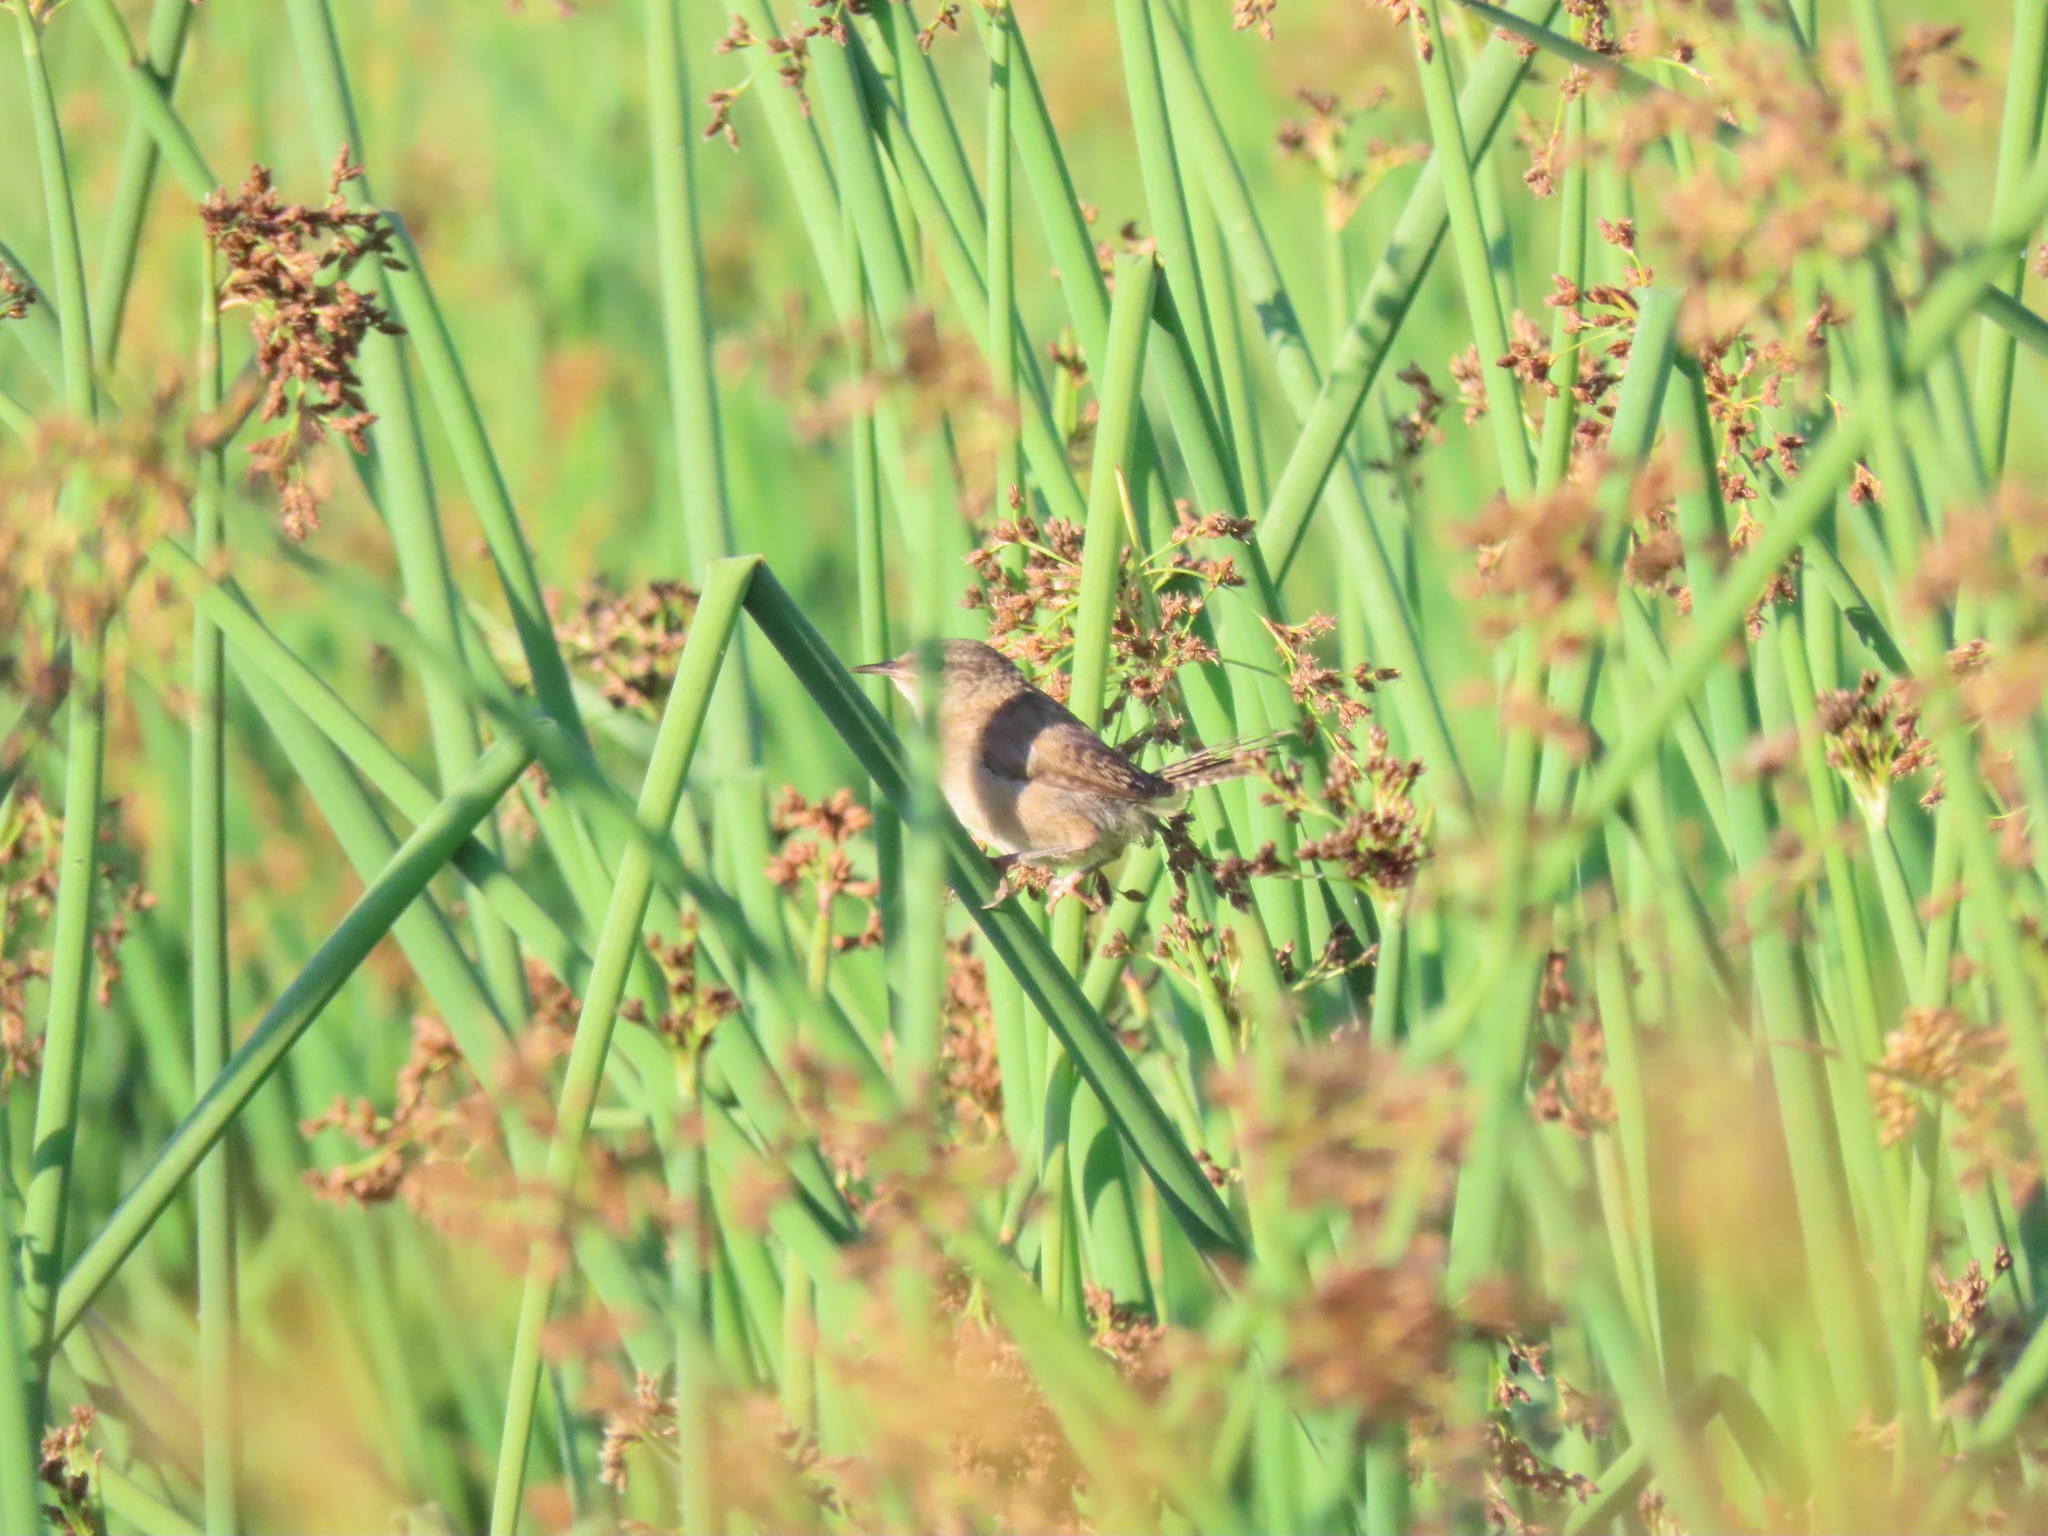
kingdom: Animalia
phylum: Chordata
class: Aves
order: Passeriformes
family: Troglodytidae
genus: Cistothorus
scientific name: Cistothorus palustris
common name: Marsh wren
